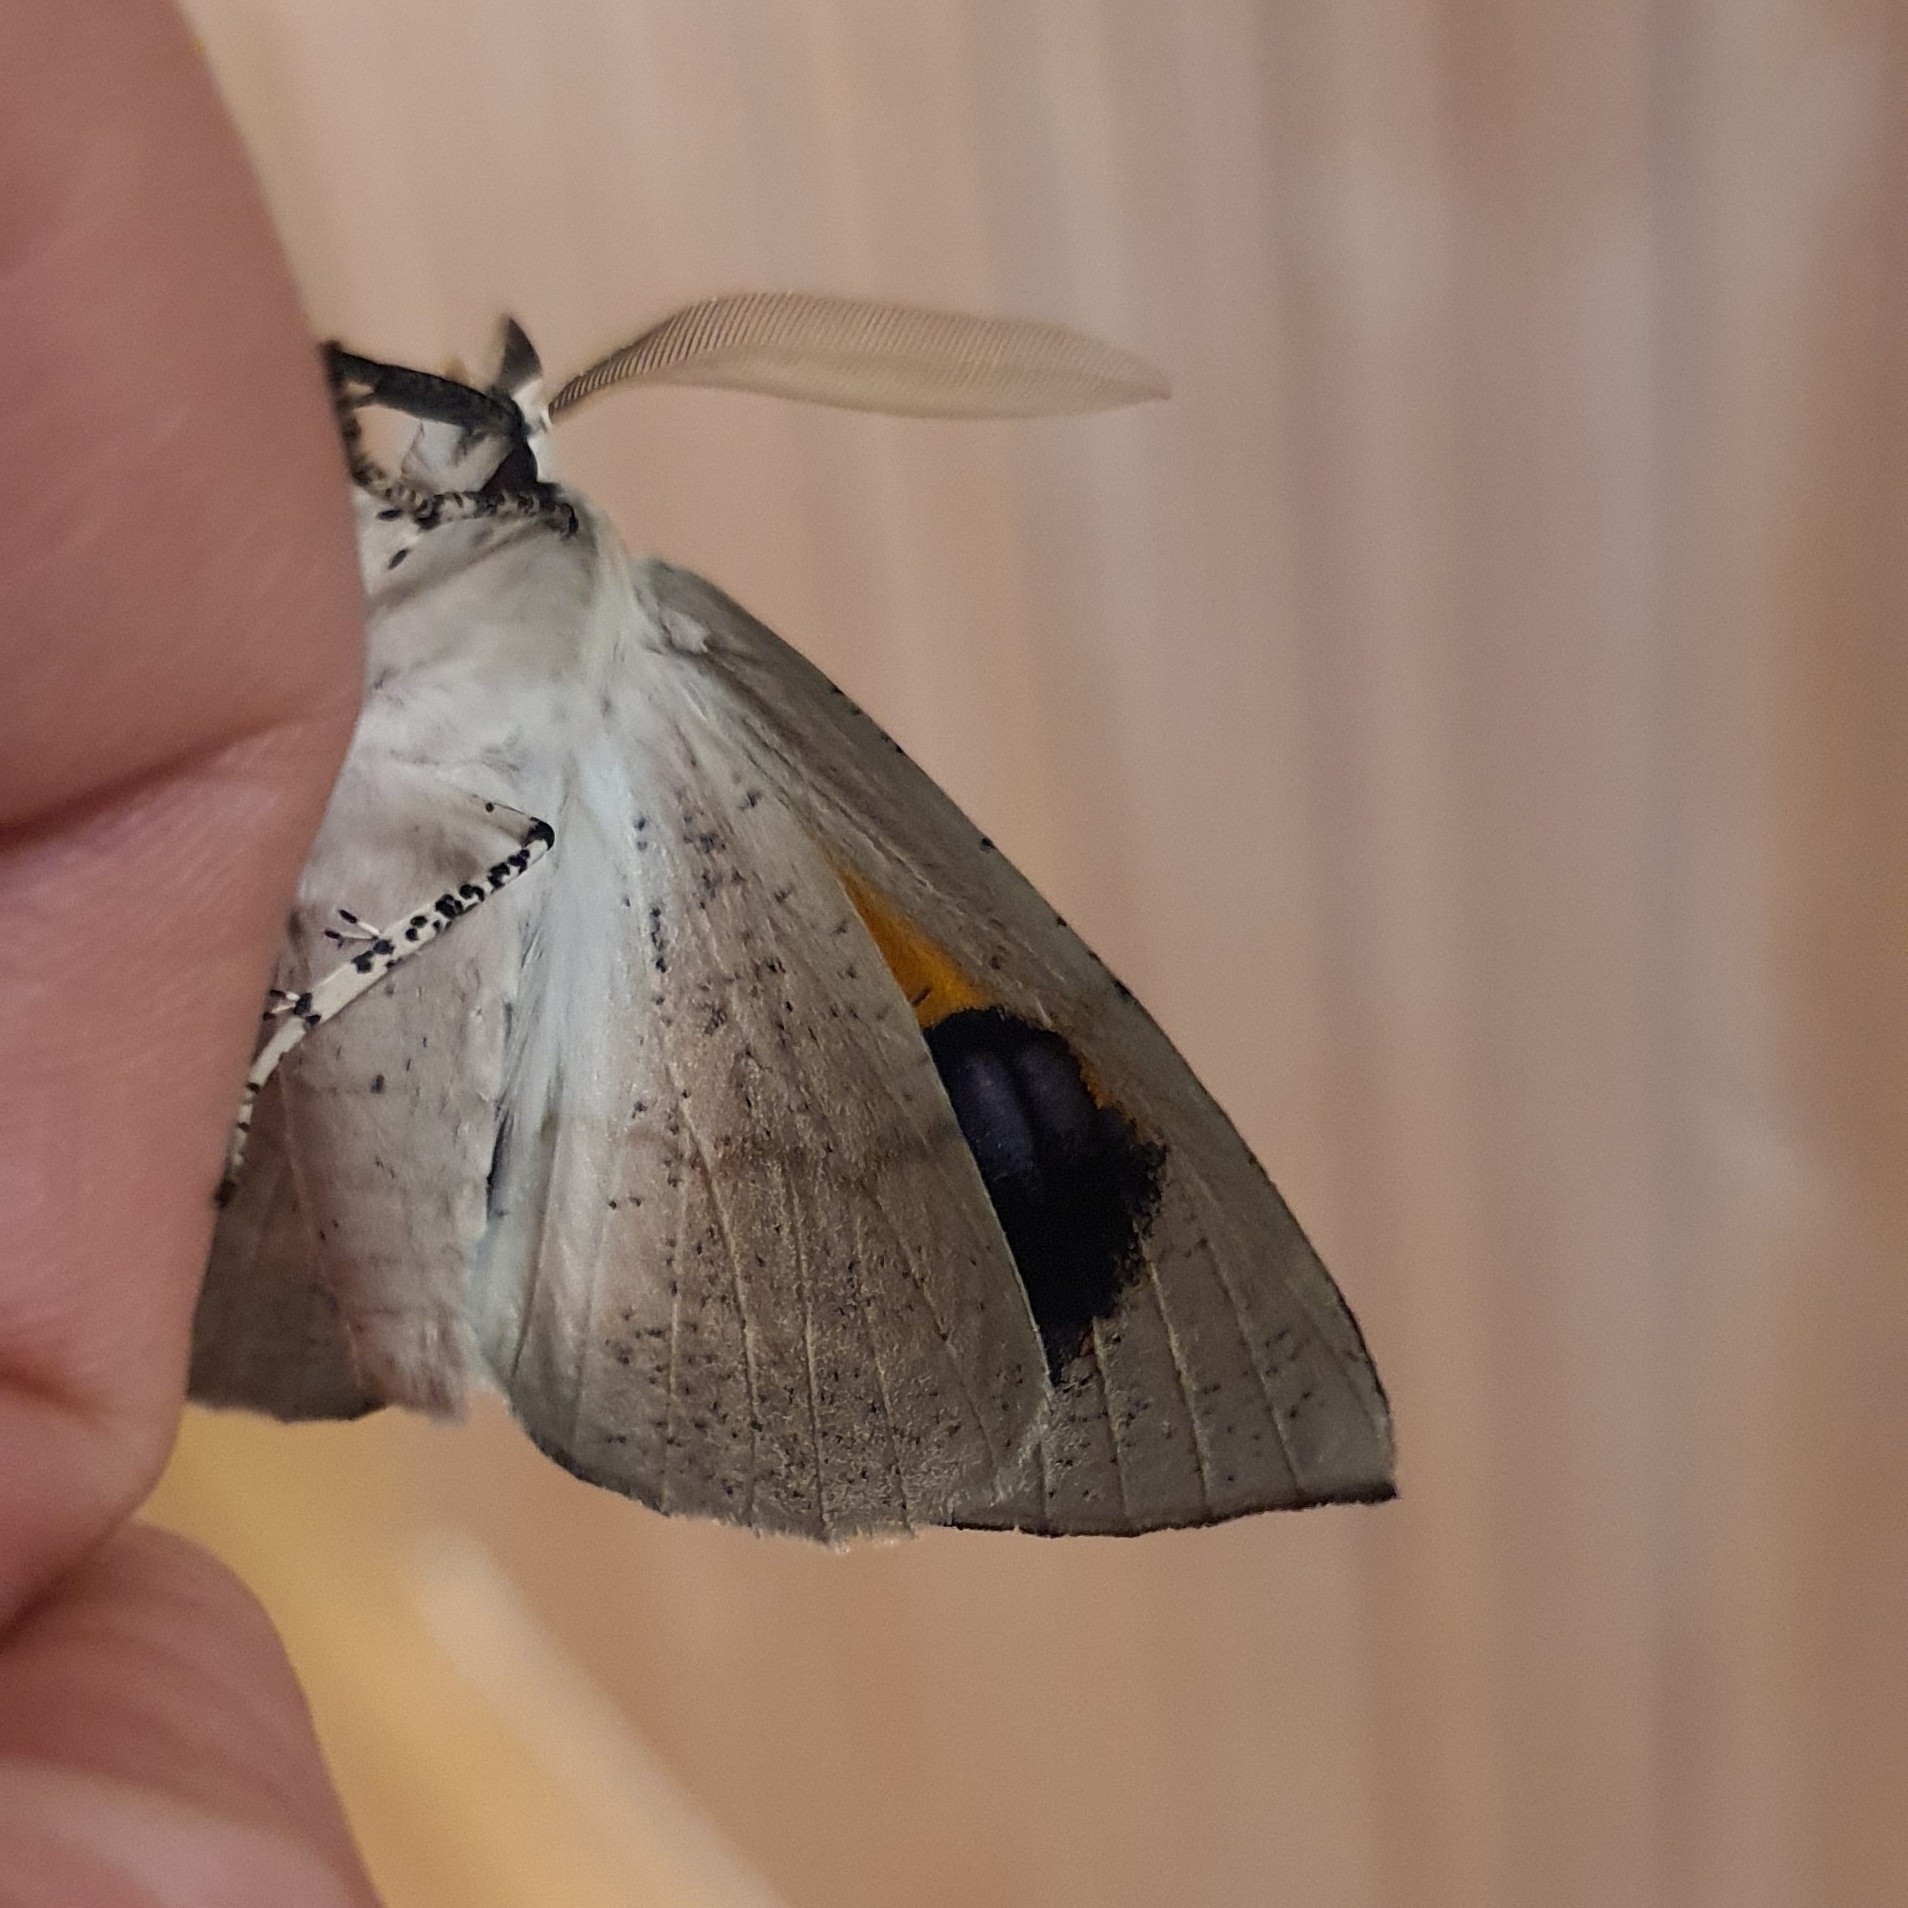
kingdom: Animalia
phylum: Arthropoda
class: Insecta
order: Lepidoptera
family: Geometridae
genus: Gastrophora
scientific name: Gastrophora henricaria
